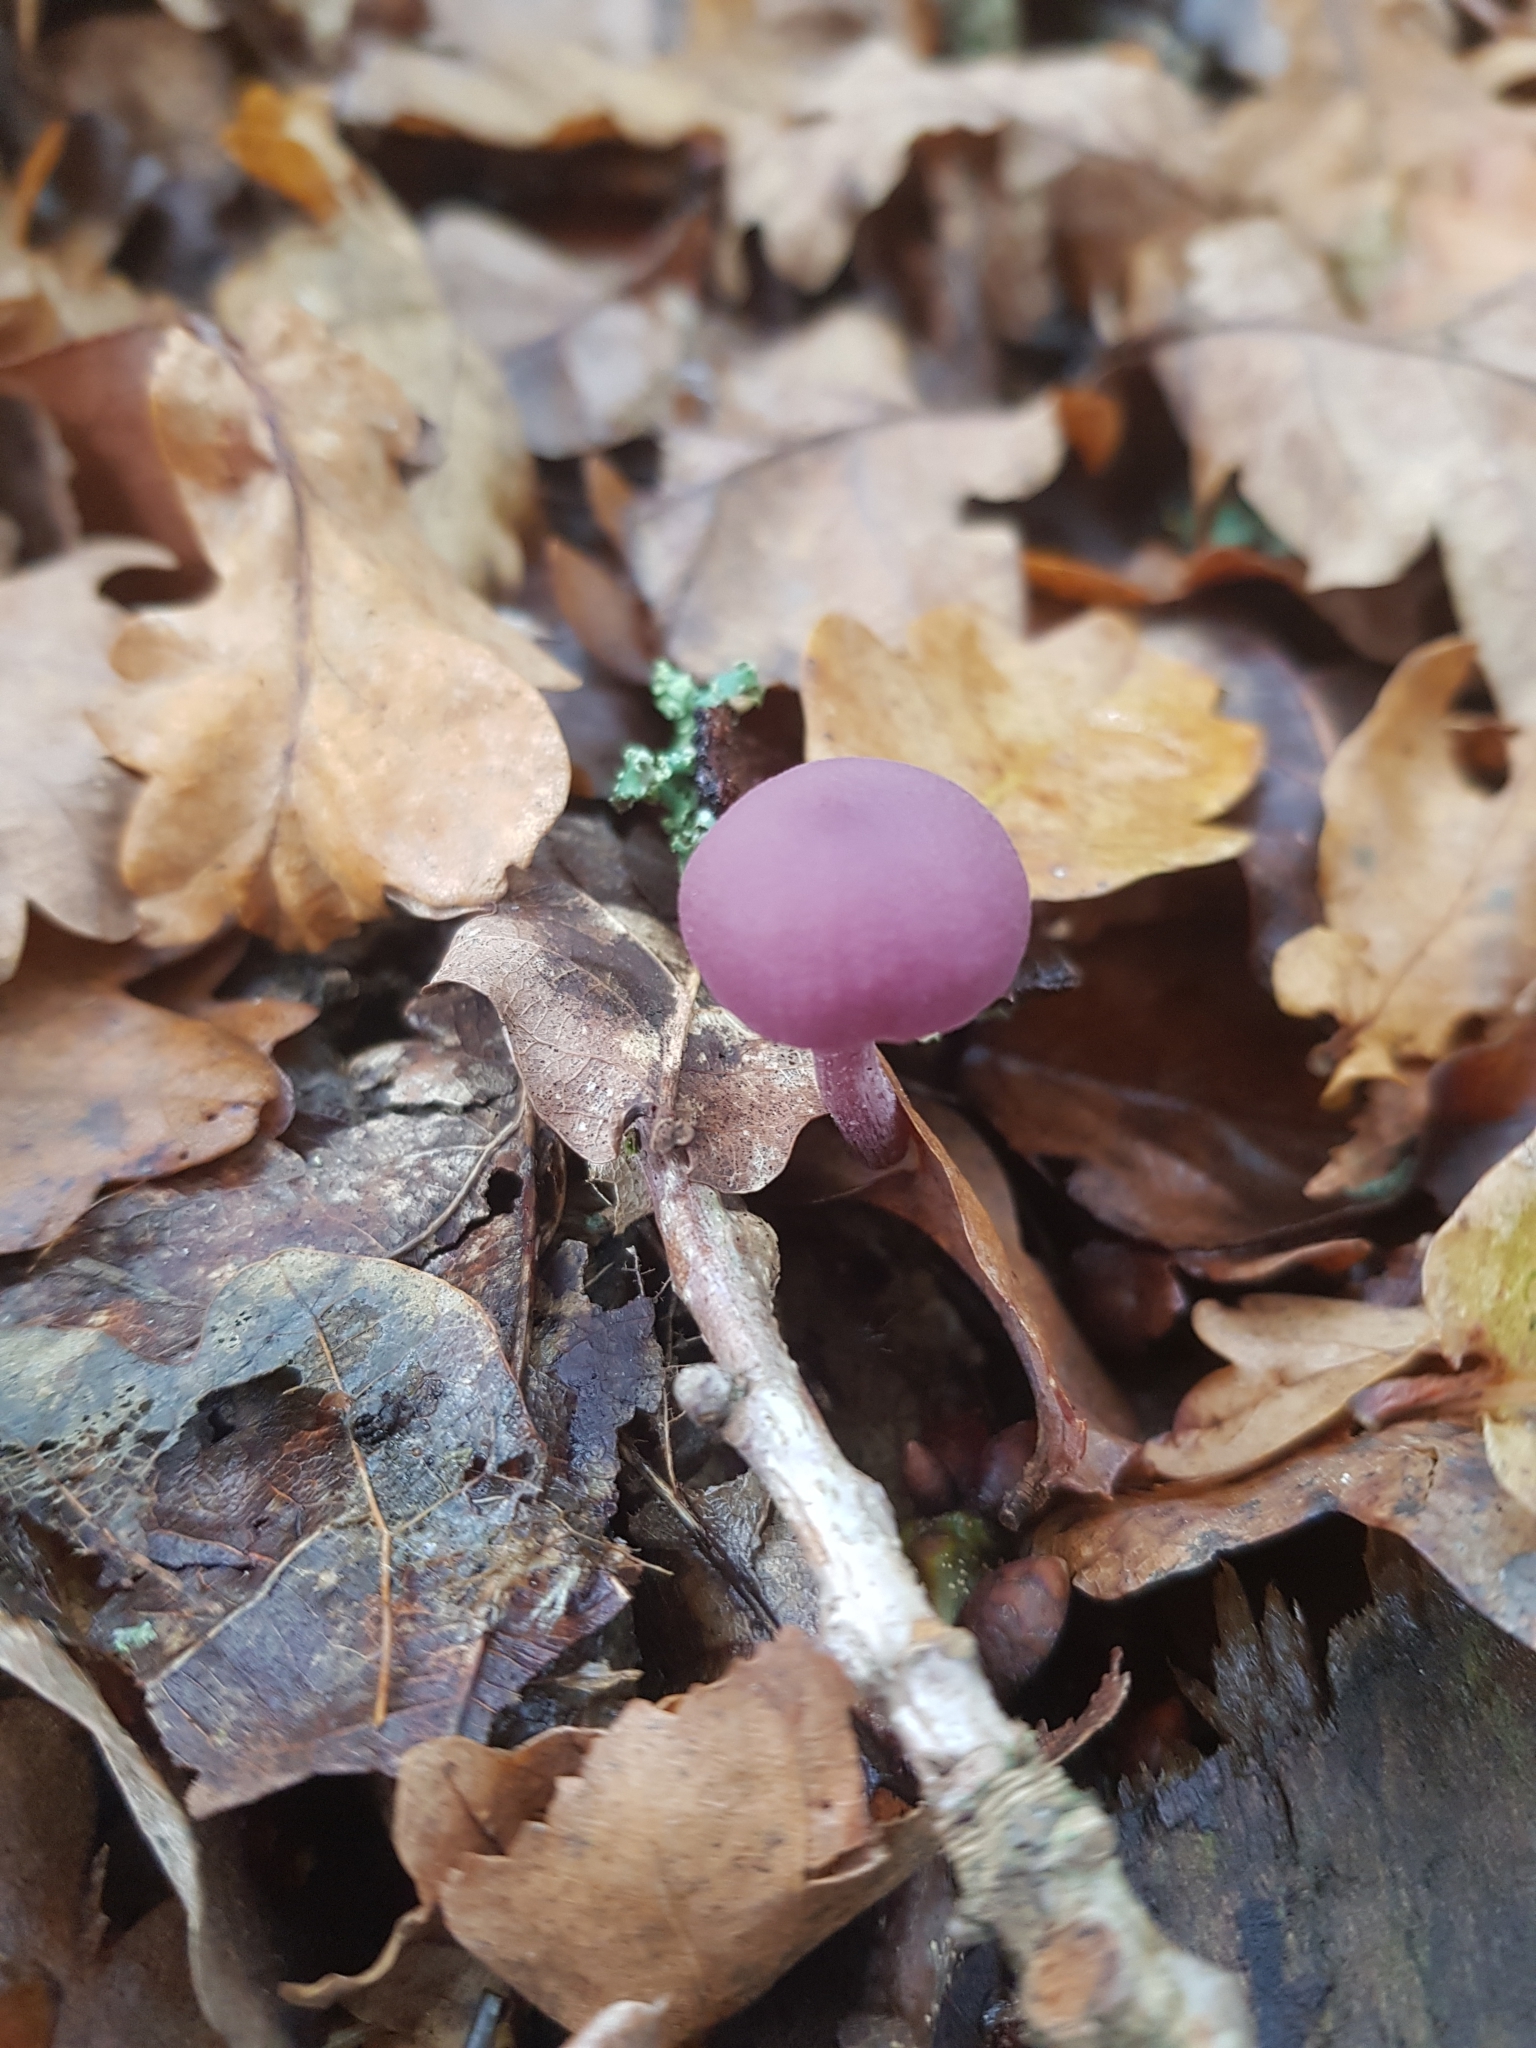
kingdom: Fungi
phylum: Basidiomycota
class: Agaricomycetes
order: Agaricales
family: Hydnangiaceae
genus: Laccaria
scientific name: Laccaria amethystina
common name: Amethyst deceiver
